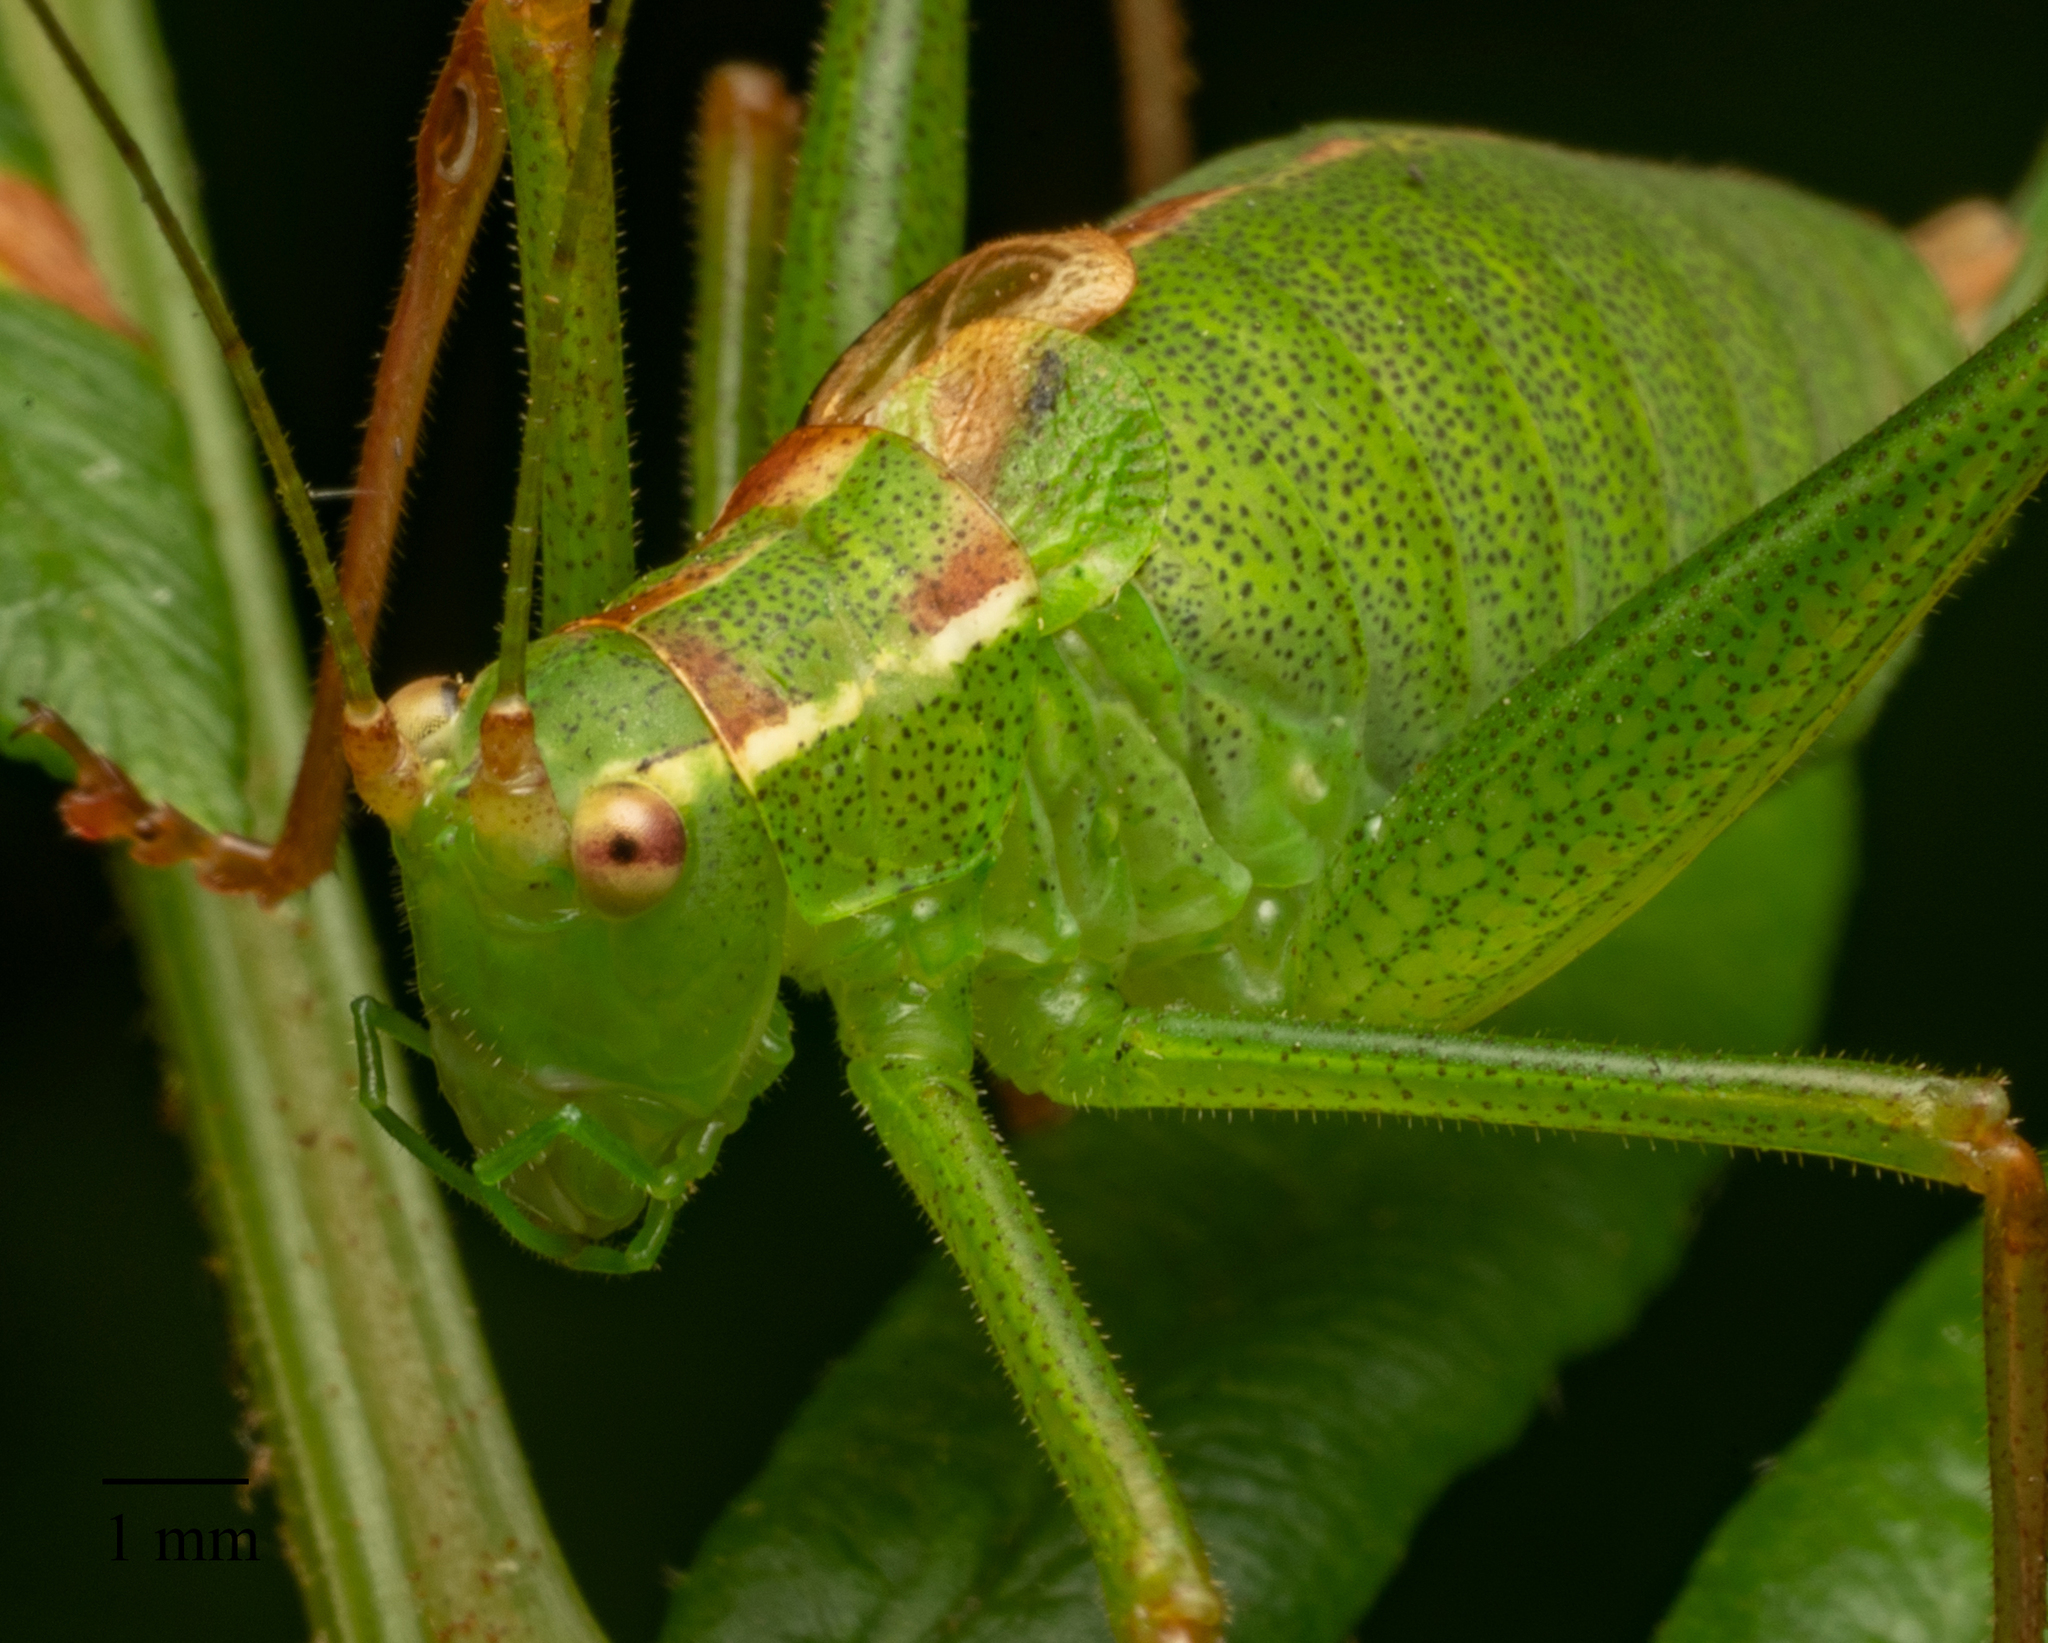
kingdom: Animalia
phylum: Arthropoda
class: Insecta
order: Orthoptera
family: Tettigoniidae
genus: Leptophyes
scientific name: Leptophyes punctatissima
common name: Speckled bush-cricket
